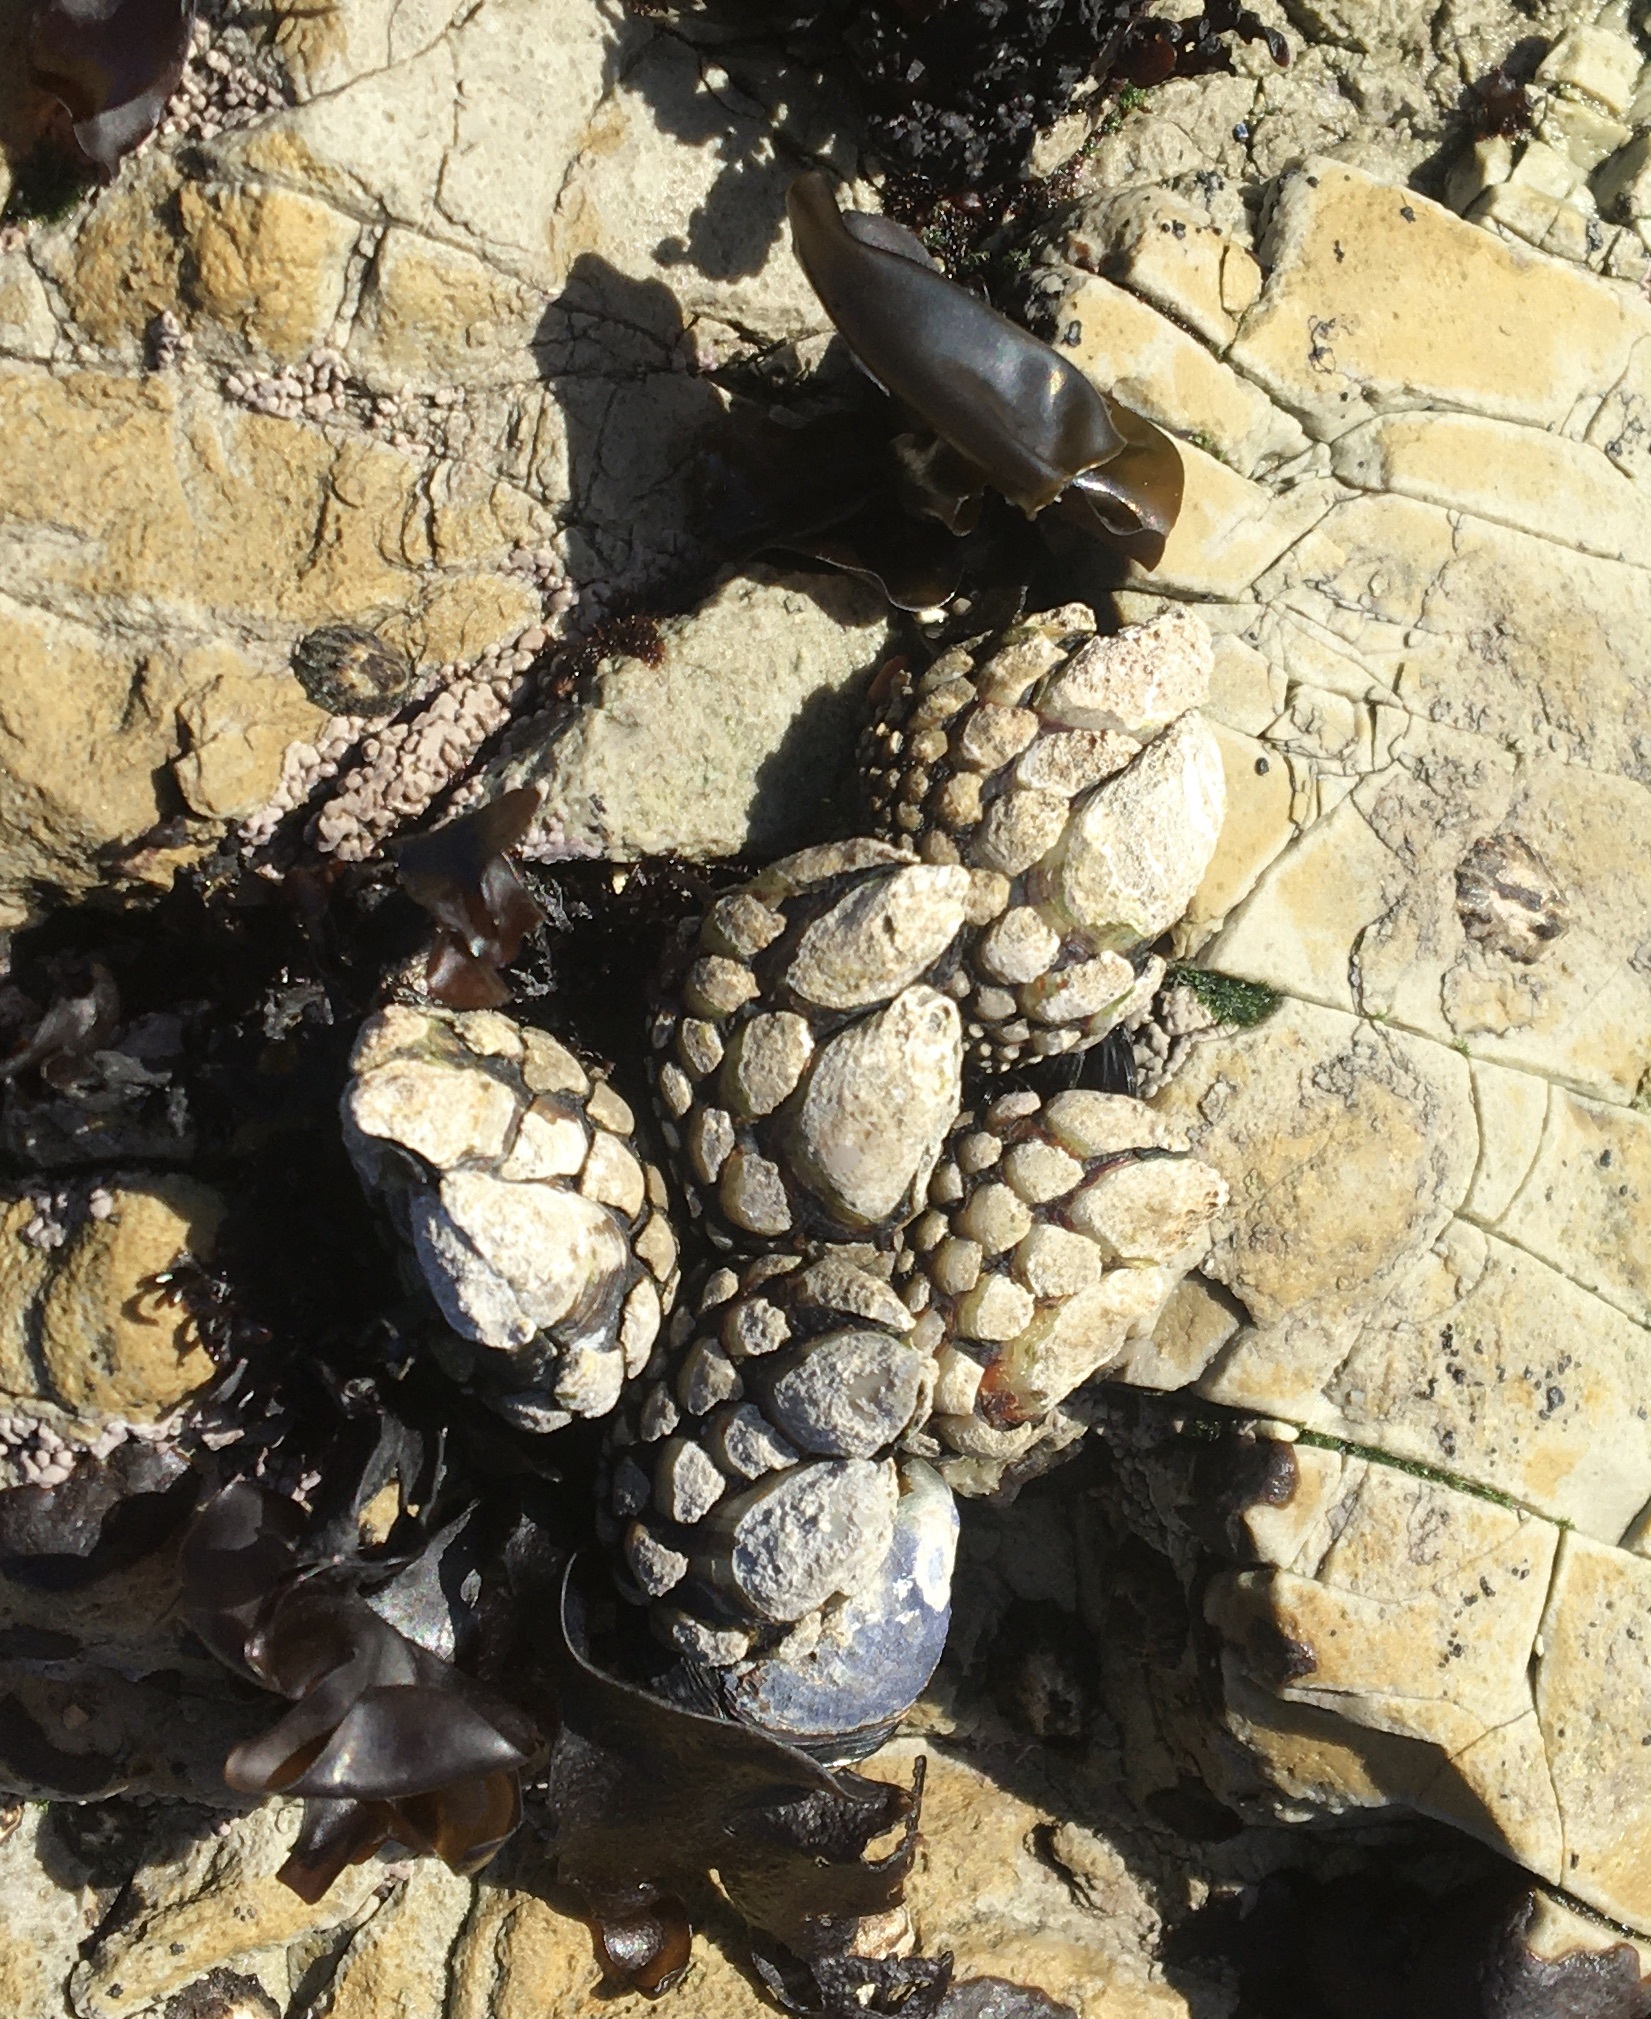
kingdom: Animalia
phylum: Arthropoda
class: Maxillopoda
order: Pedunculata
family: Pollicipedidae
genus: Pollicipes
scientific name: Pollicipes polymerus
